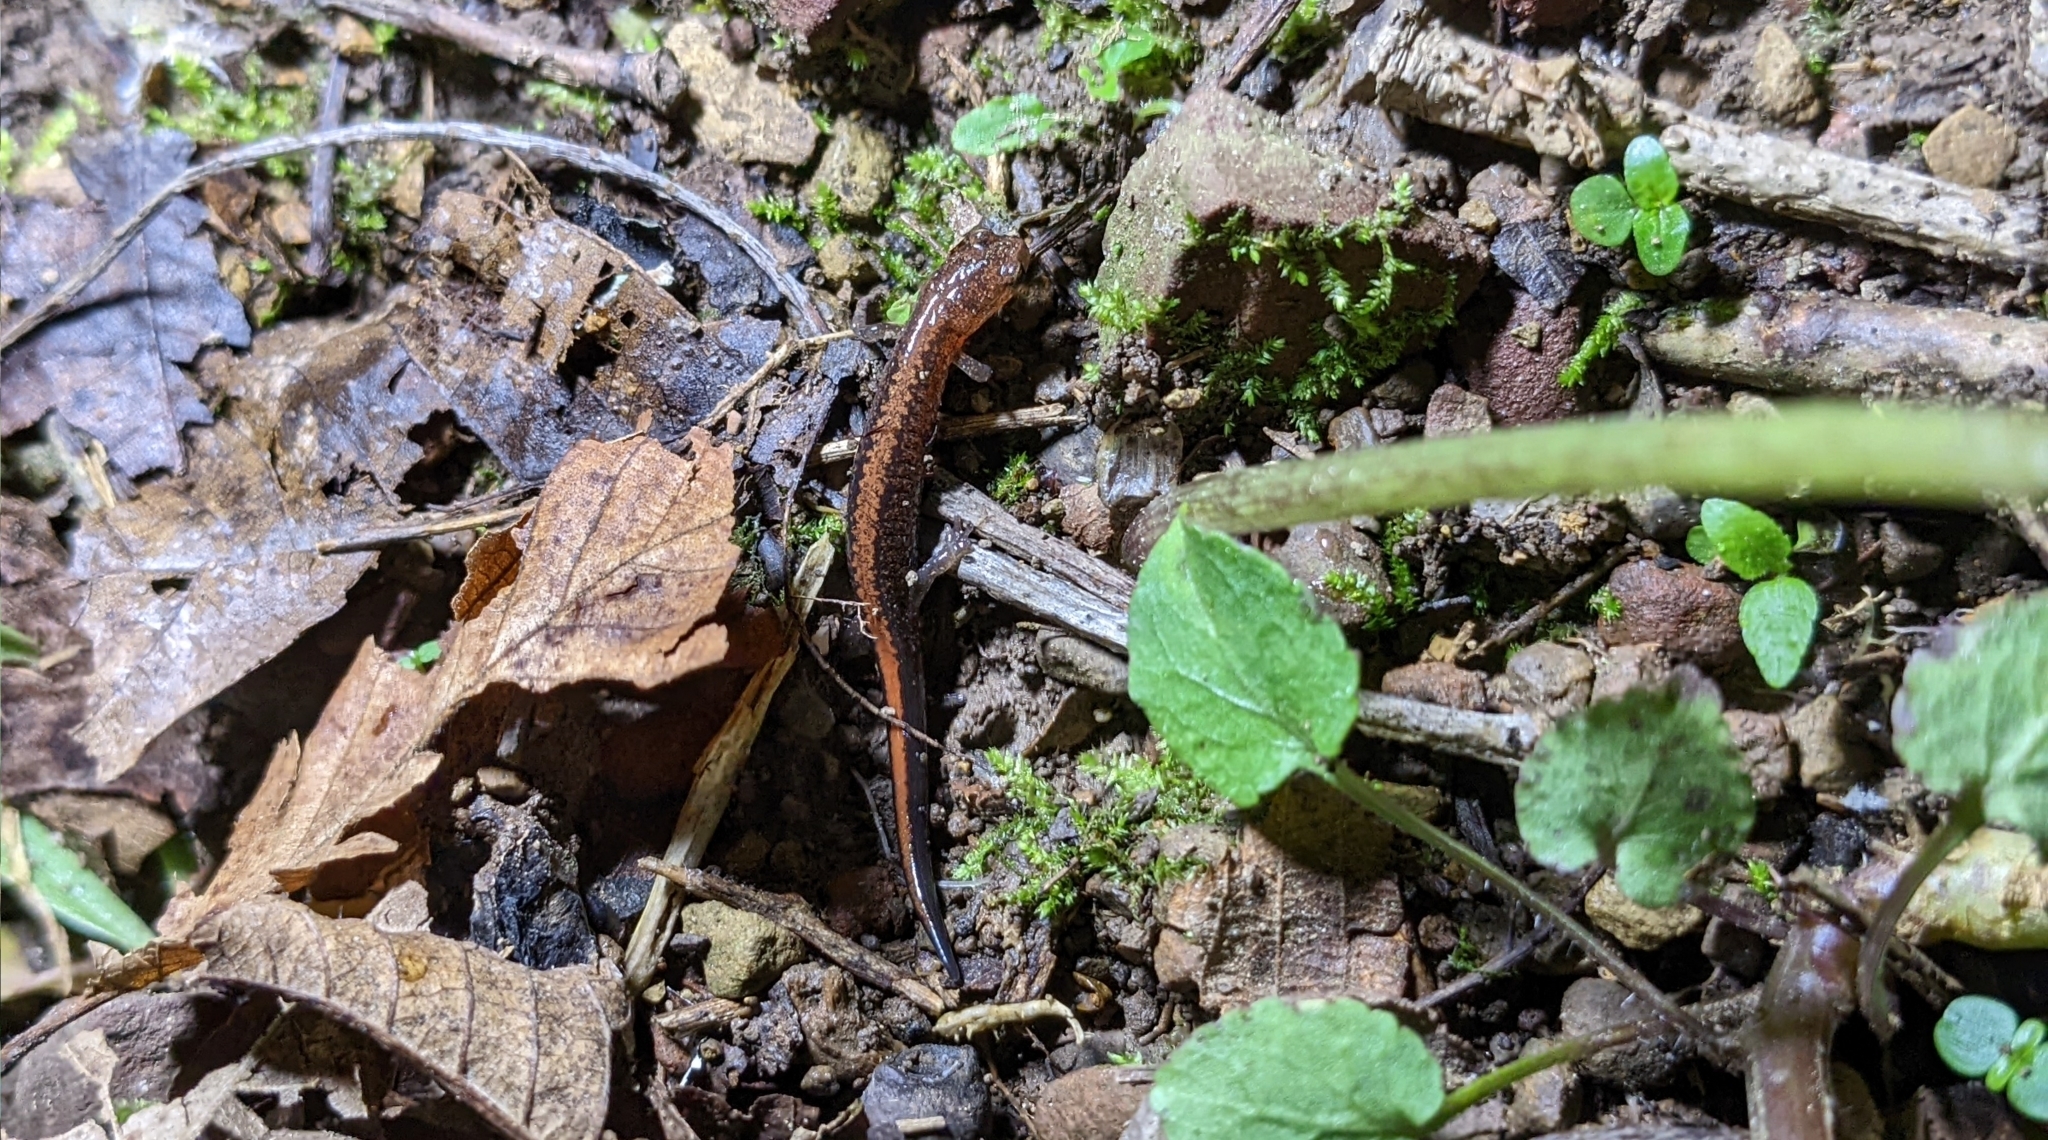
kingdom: Animalia
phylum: Chordata
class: Amphibia
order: Caudata
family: Plethodontidae
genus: Plethodon
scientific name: Plethodon serratus
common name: Southern red-backed salamander
